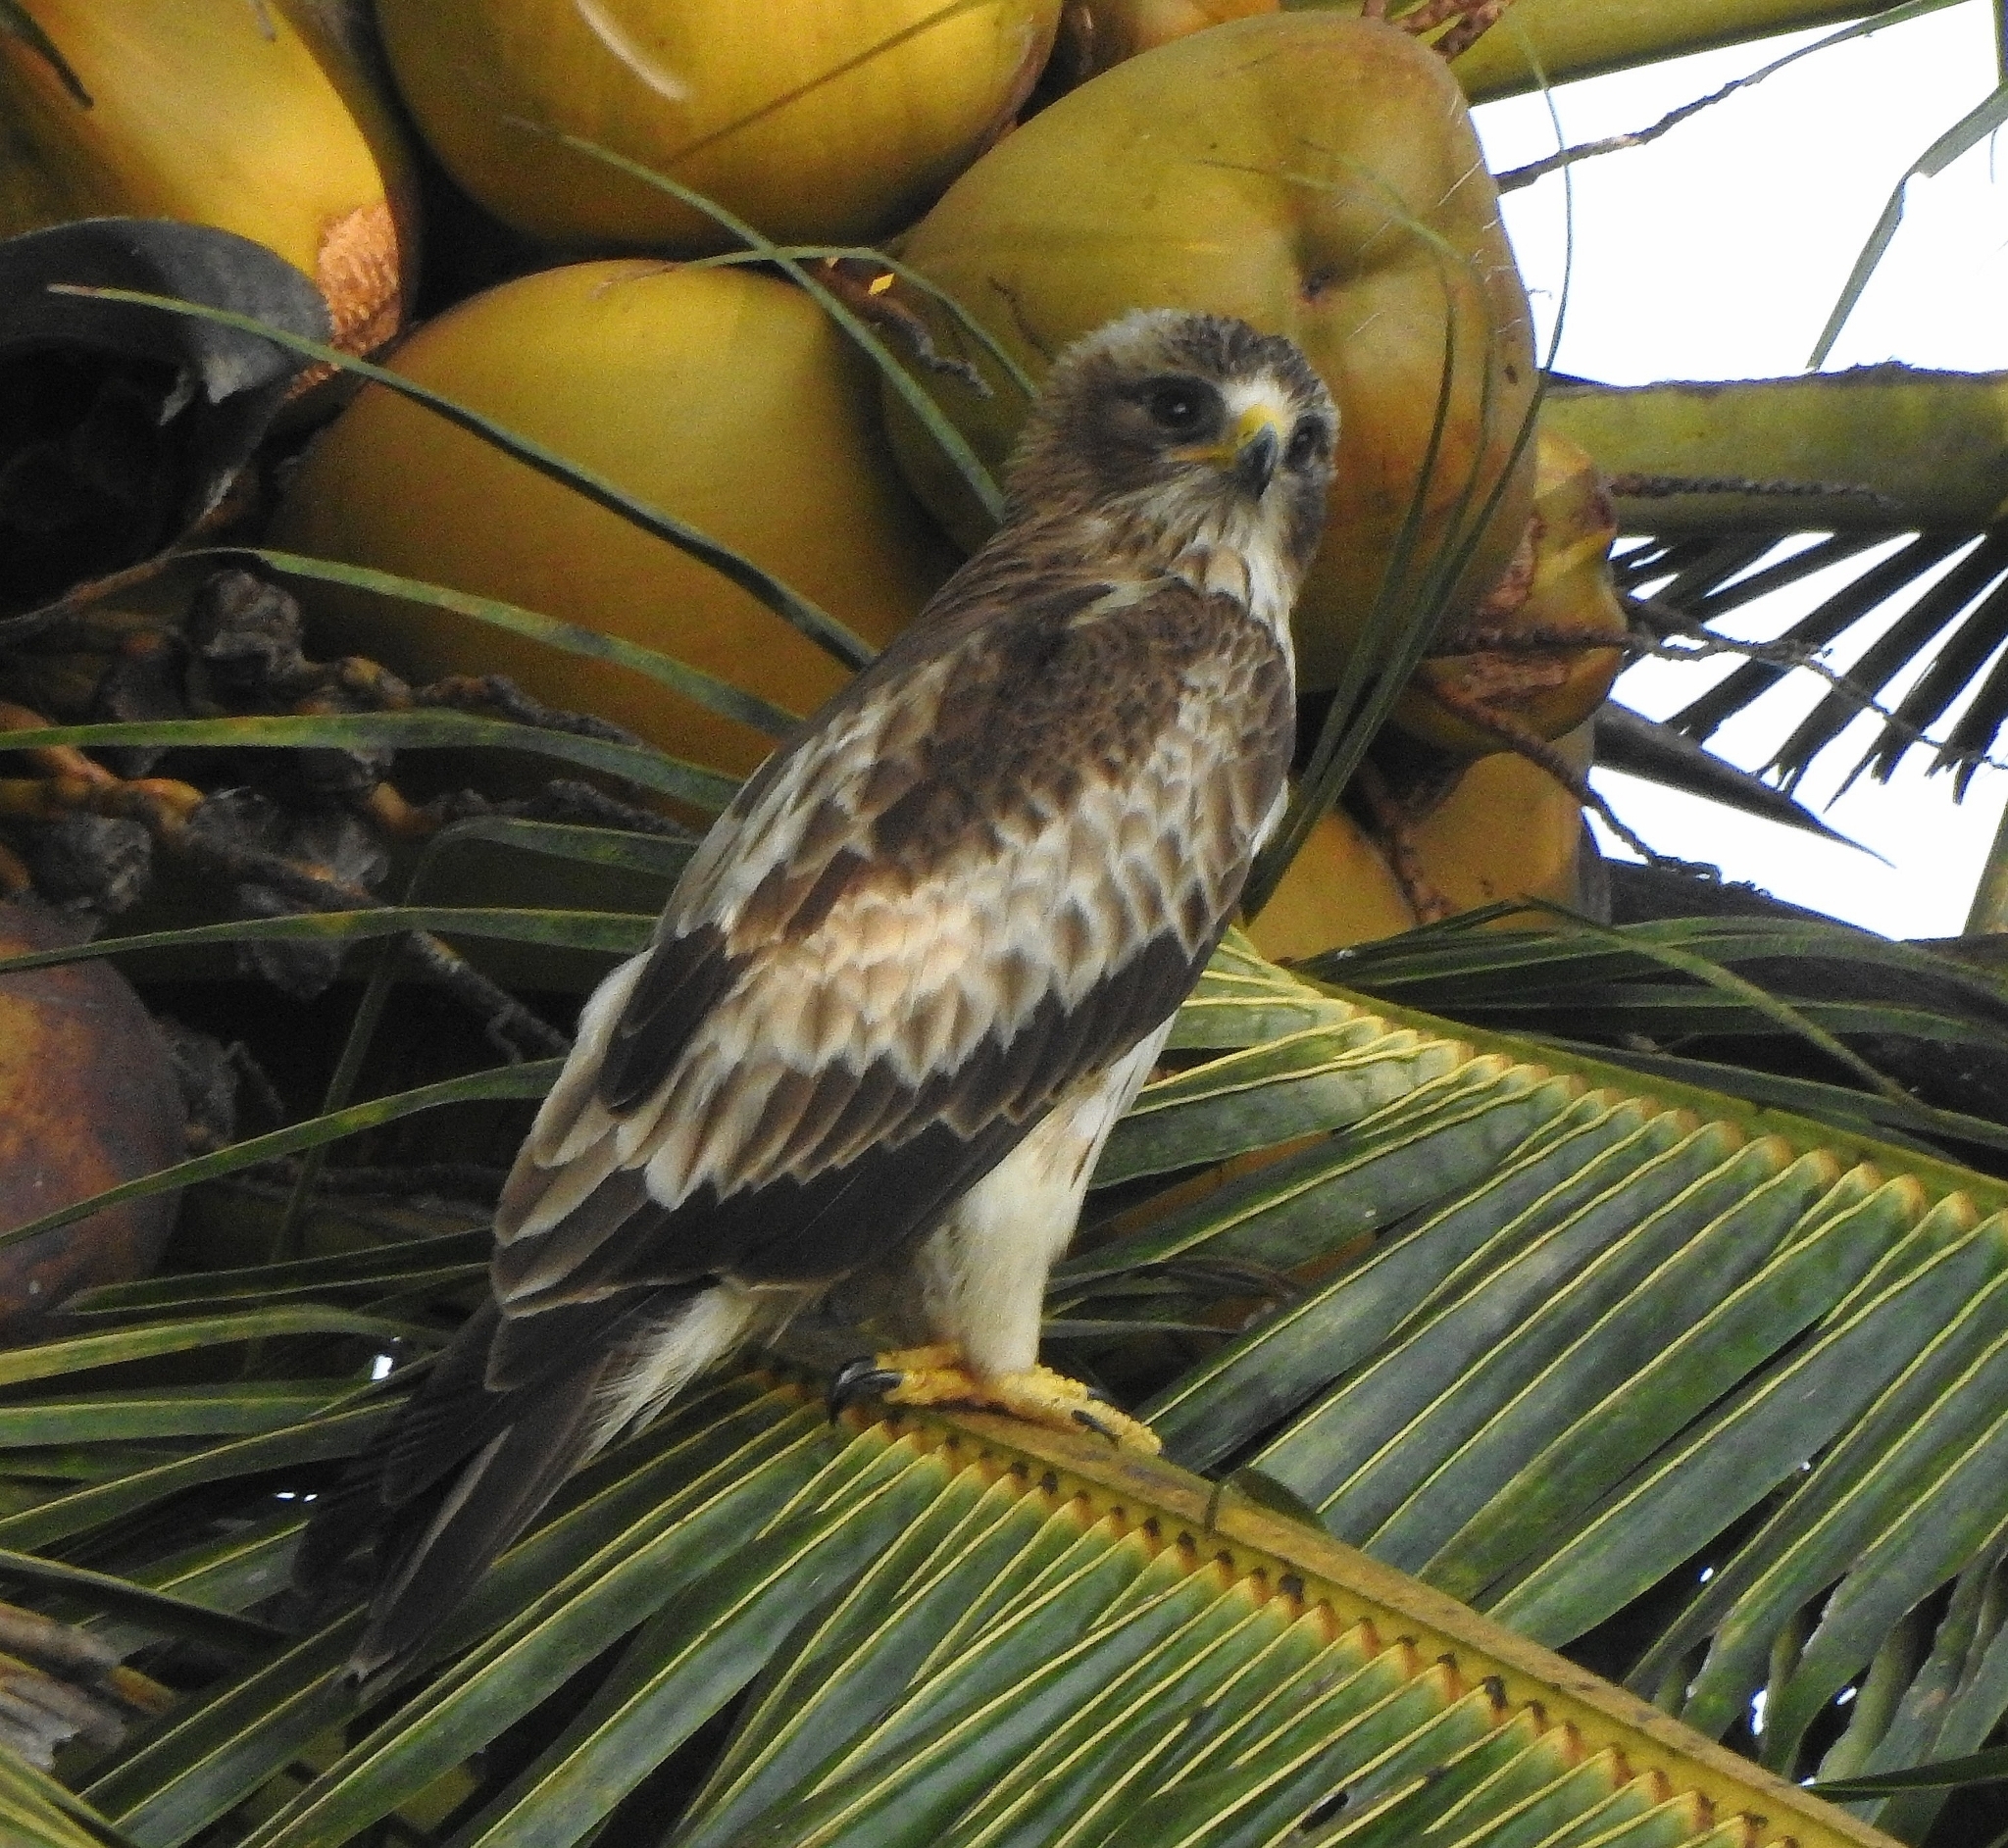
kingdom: Animalia
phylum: Chordata
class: Aves
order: Accipitriformes
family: Accipitridae
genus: Hieraaetus
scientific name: Hieraaetus pennatus
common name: Booted eagle
